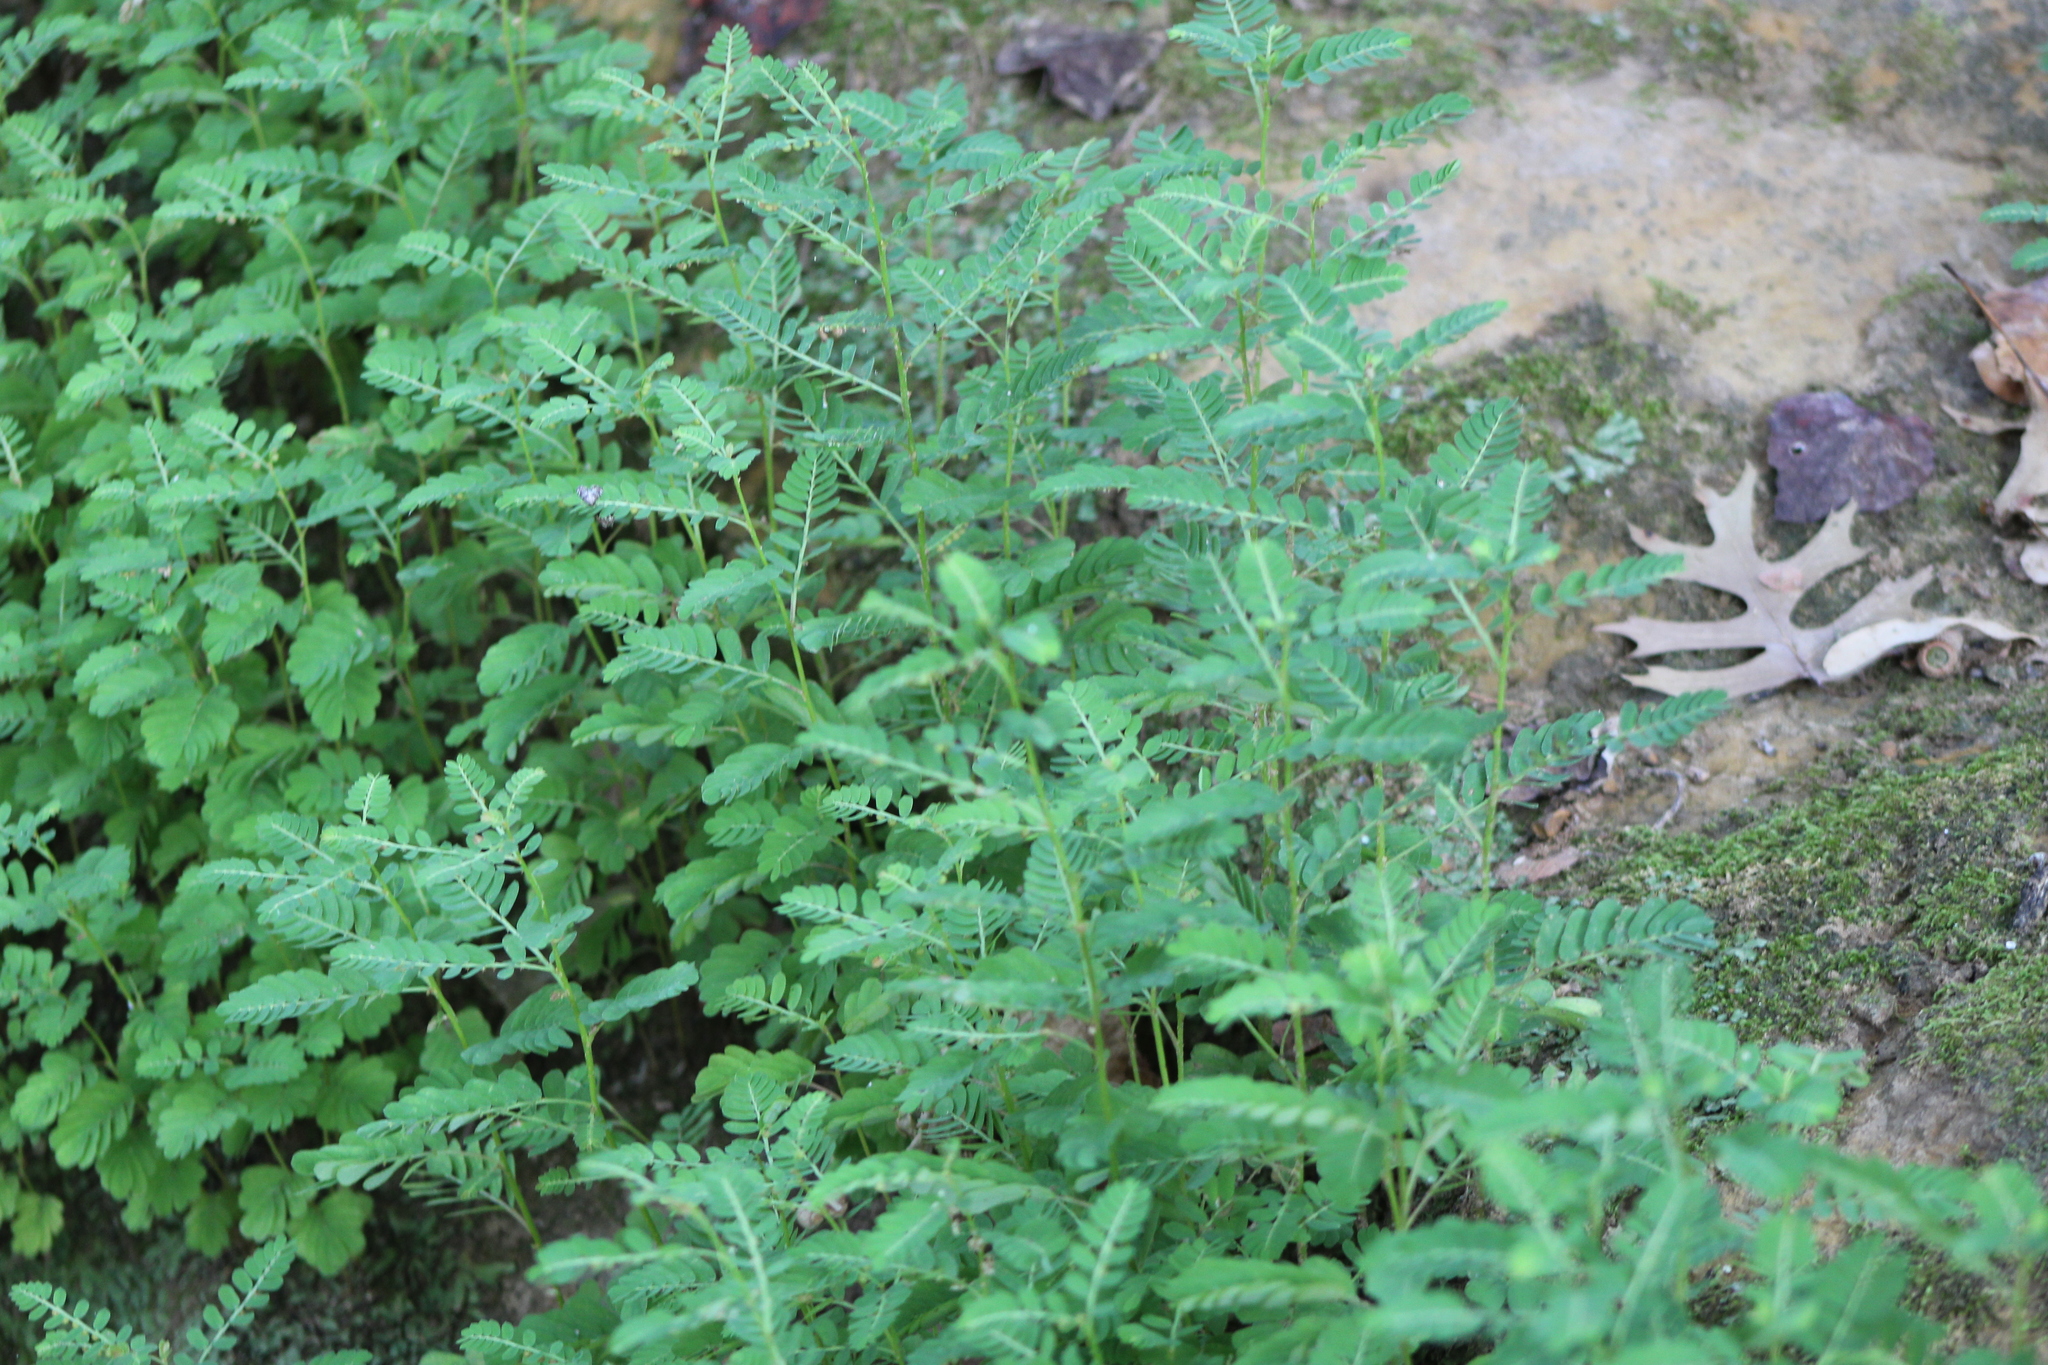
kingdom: Plantae
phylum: Tracheophyta
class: Magnoliopsida
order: Malpighiales
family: Phyllanthaceae
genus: Phyllanthus
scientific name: Phyllanthus urinaria
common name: Chamber bitter
